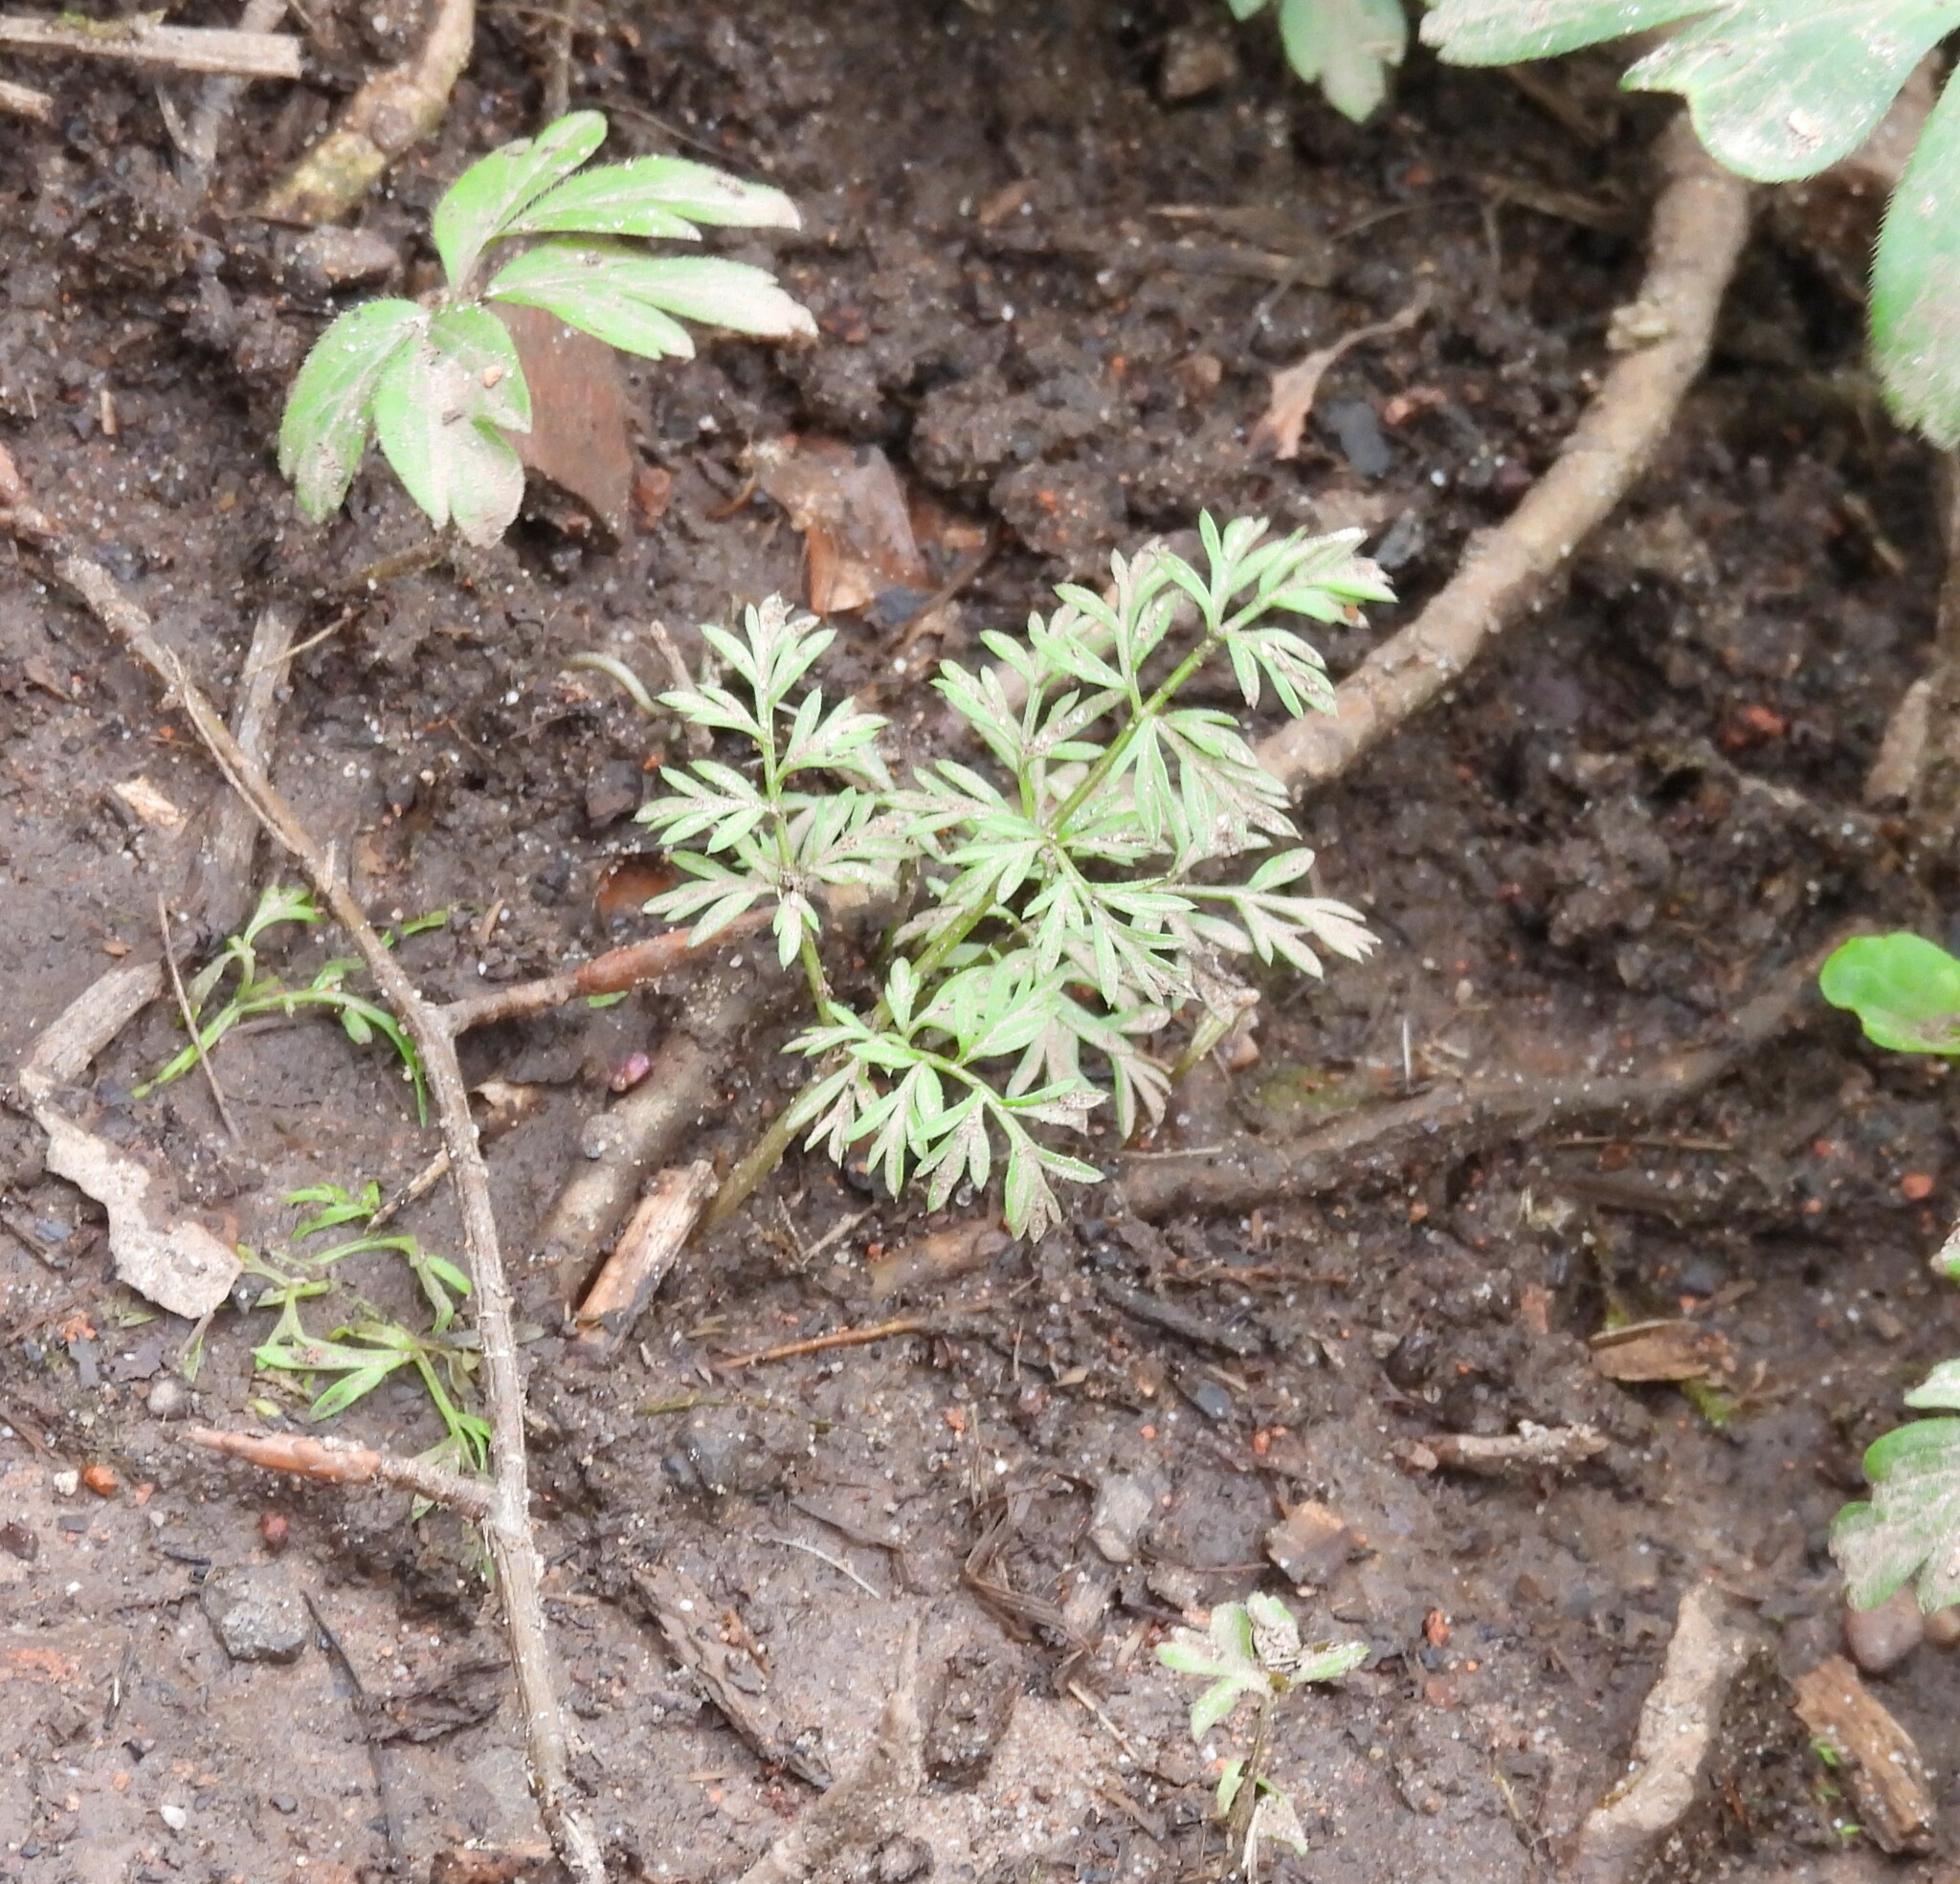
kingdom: Plantae
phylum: Tracheophyta
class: Magnoliopsida
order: Apiales
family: Apiaceae
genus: Conopodium
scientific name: Conopodium majus
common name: Pignut
